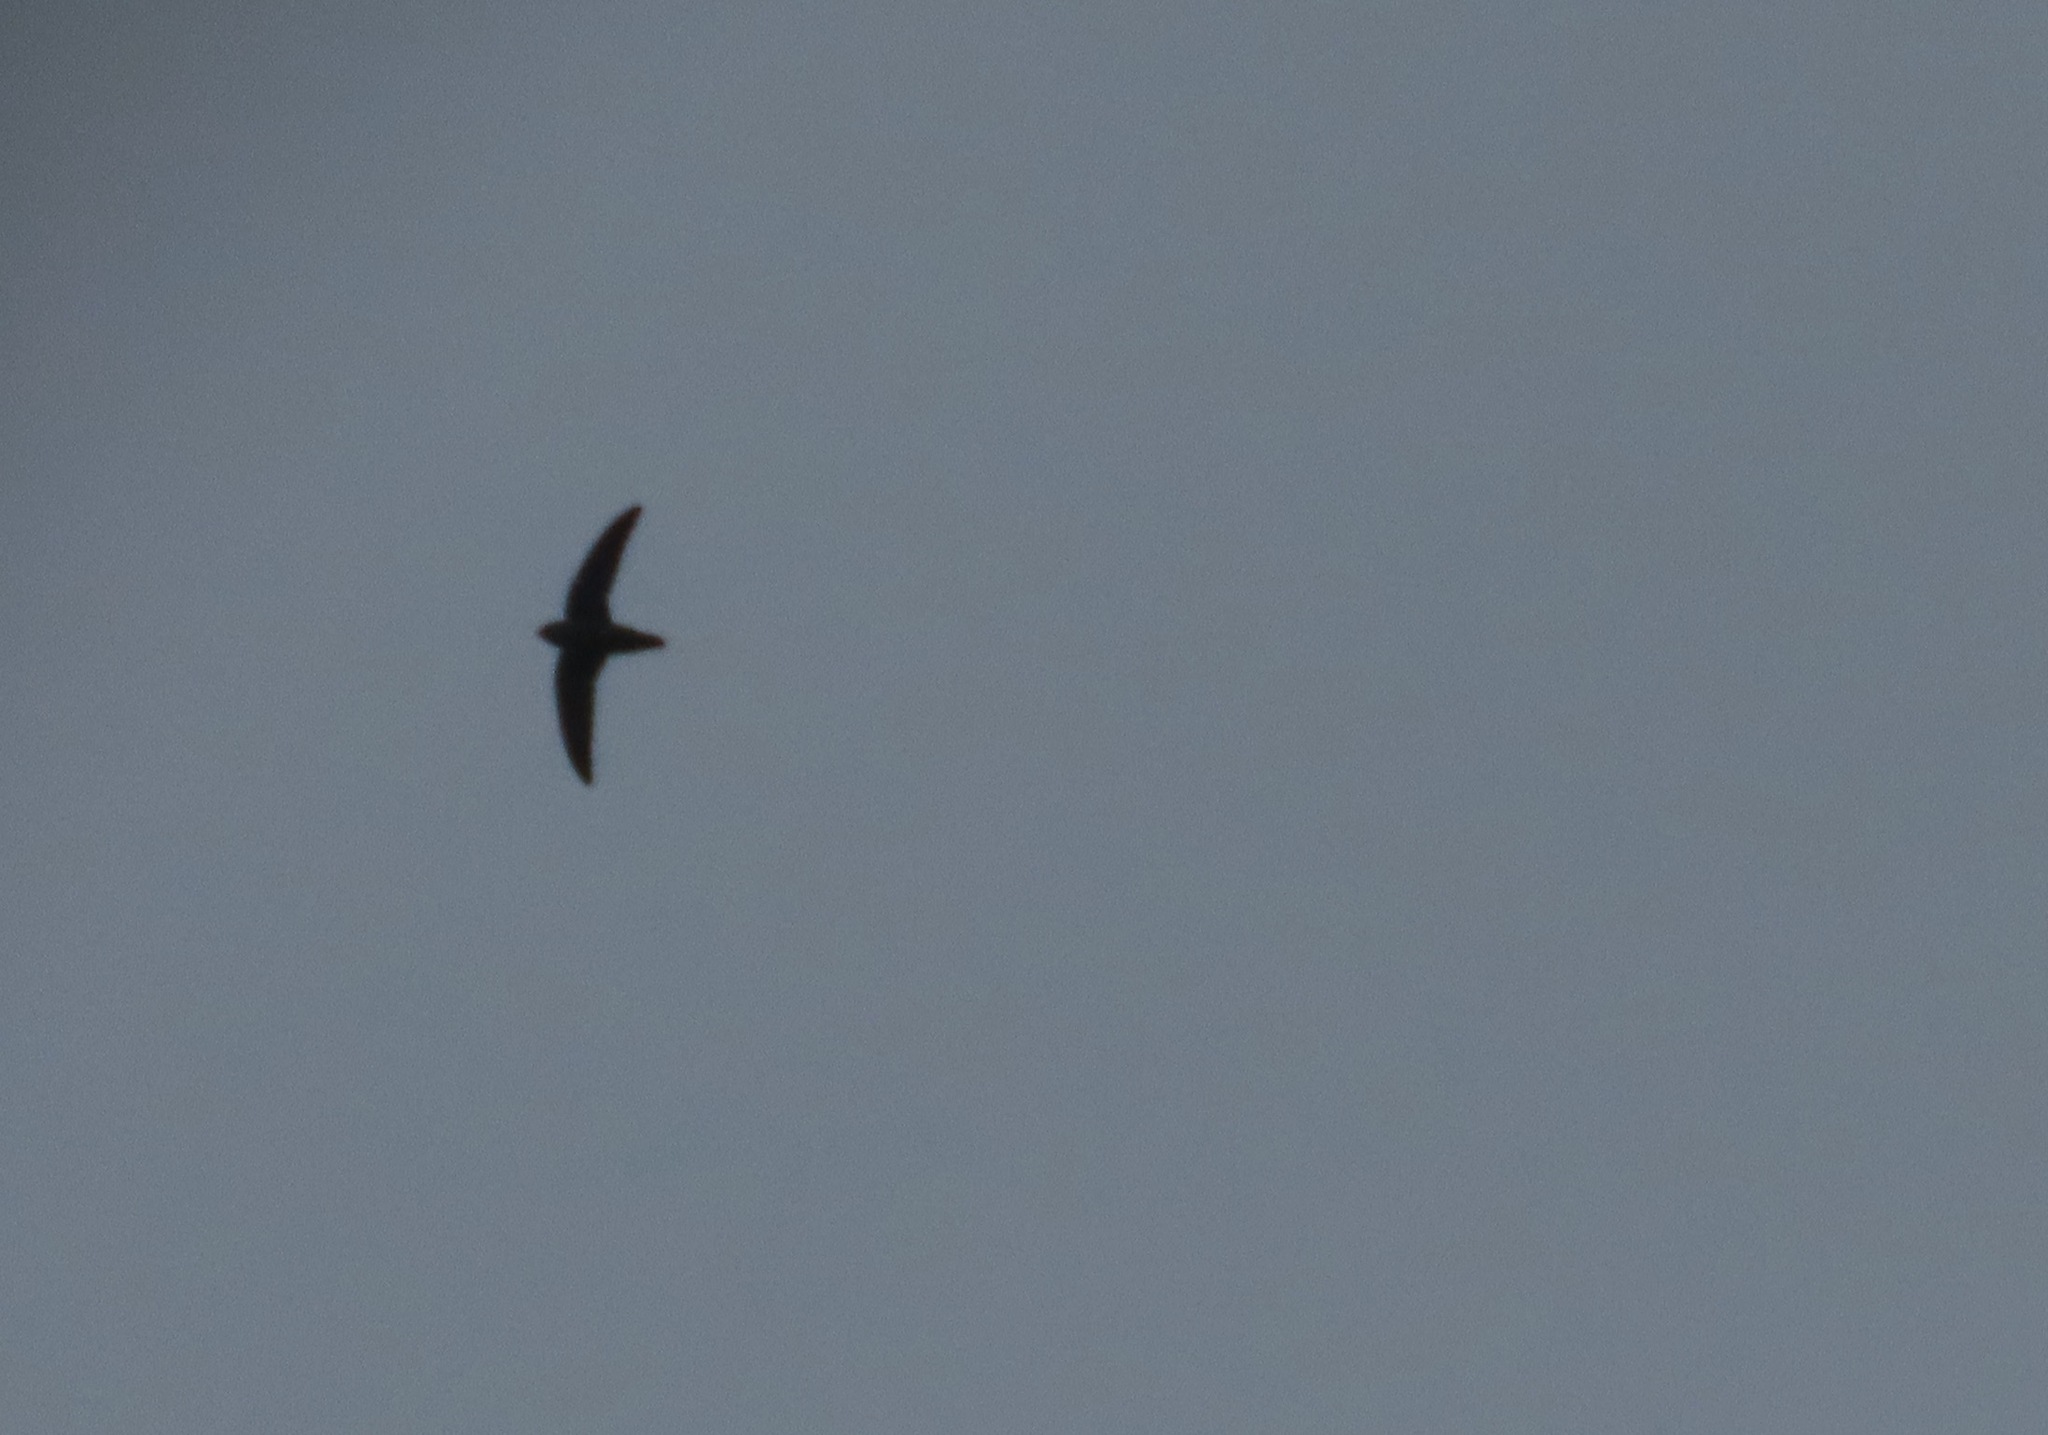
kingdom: Animalia
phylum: Chordata
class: Aves
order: Apodiformes
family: Apodidae
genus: Chaetura
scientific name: Chaetura vauxi
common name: Vaux's swift
